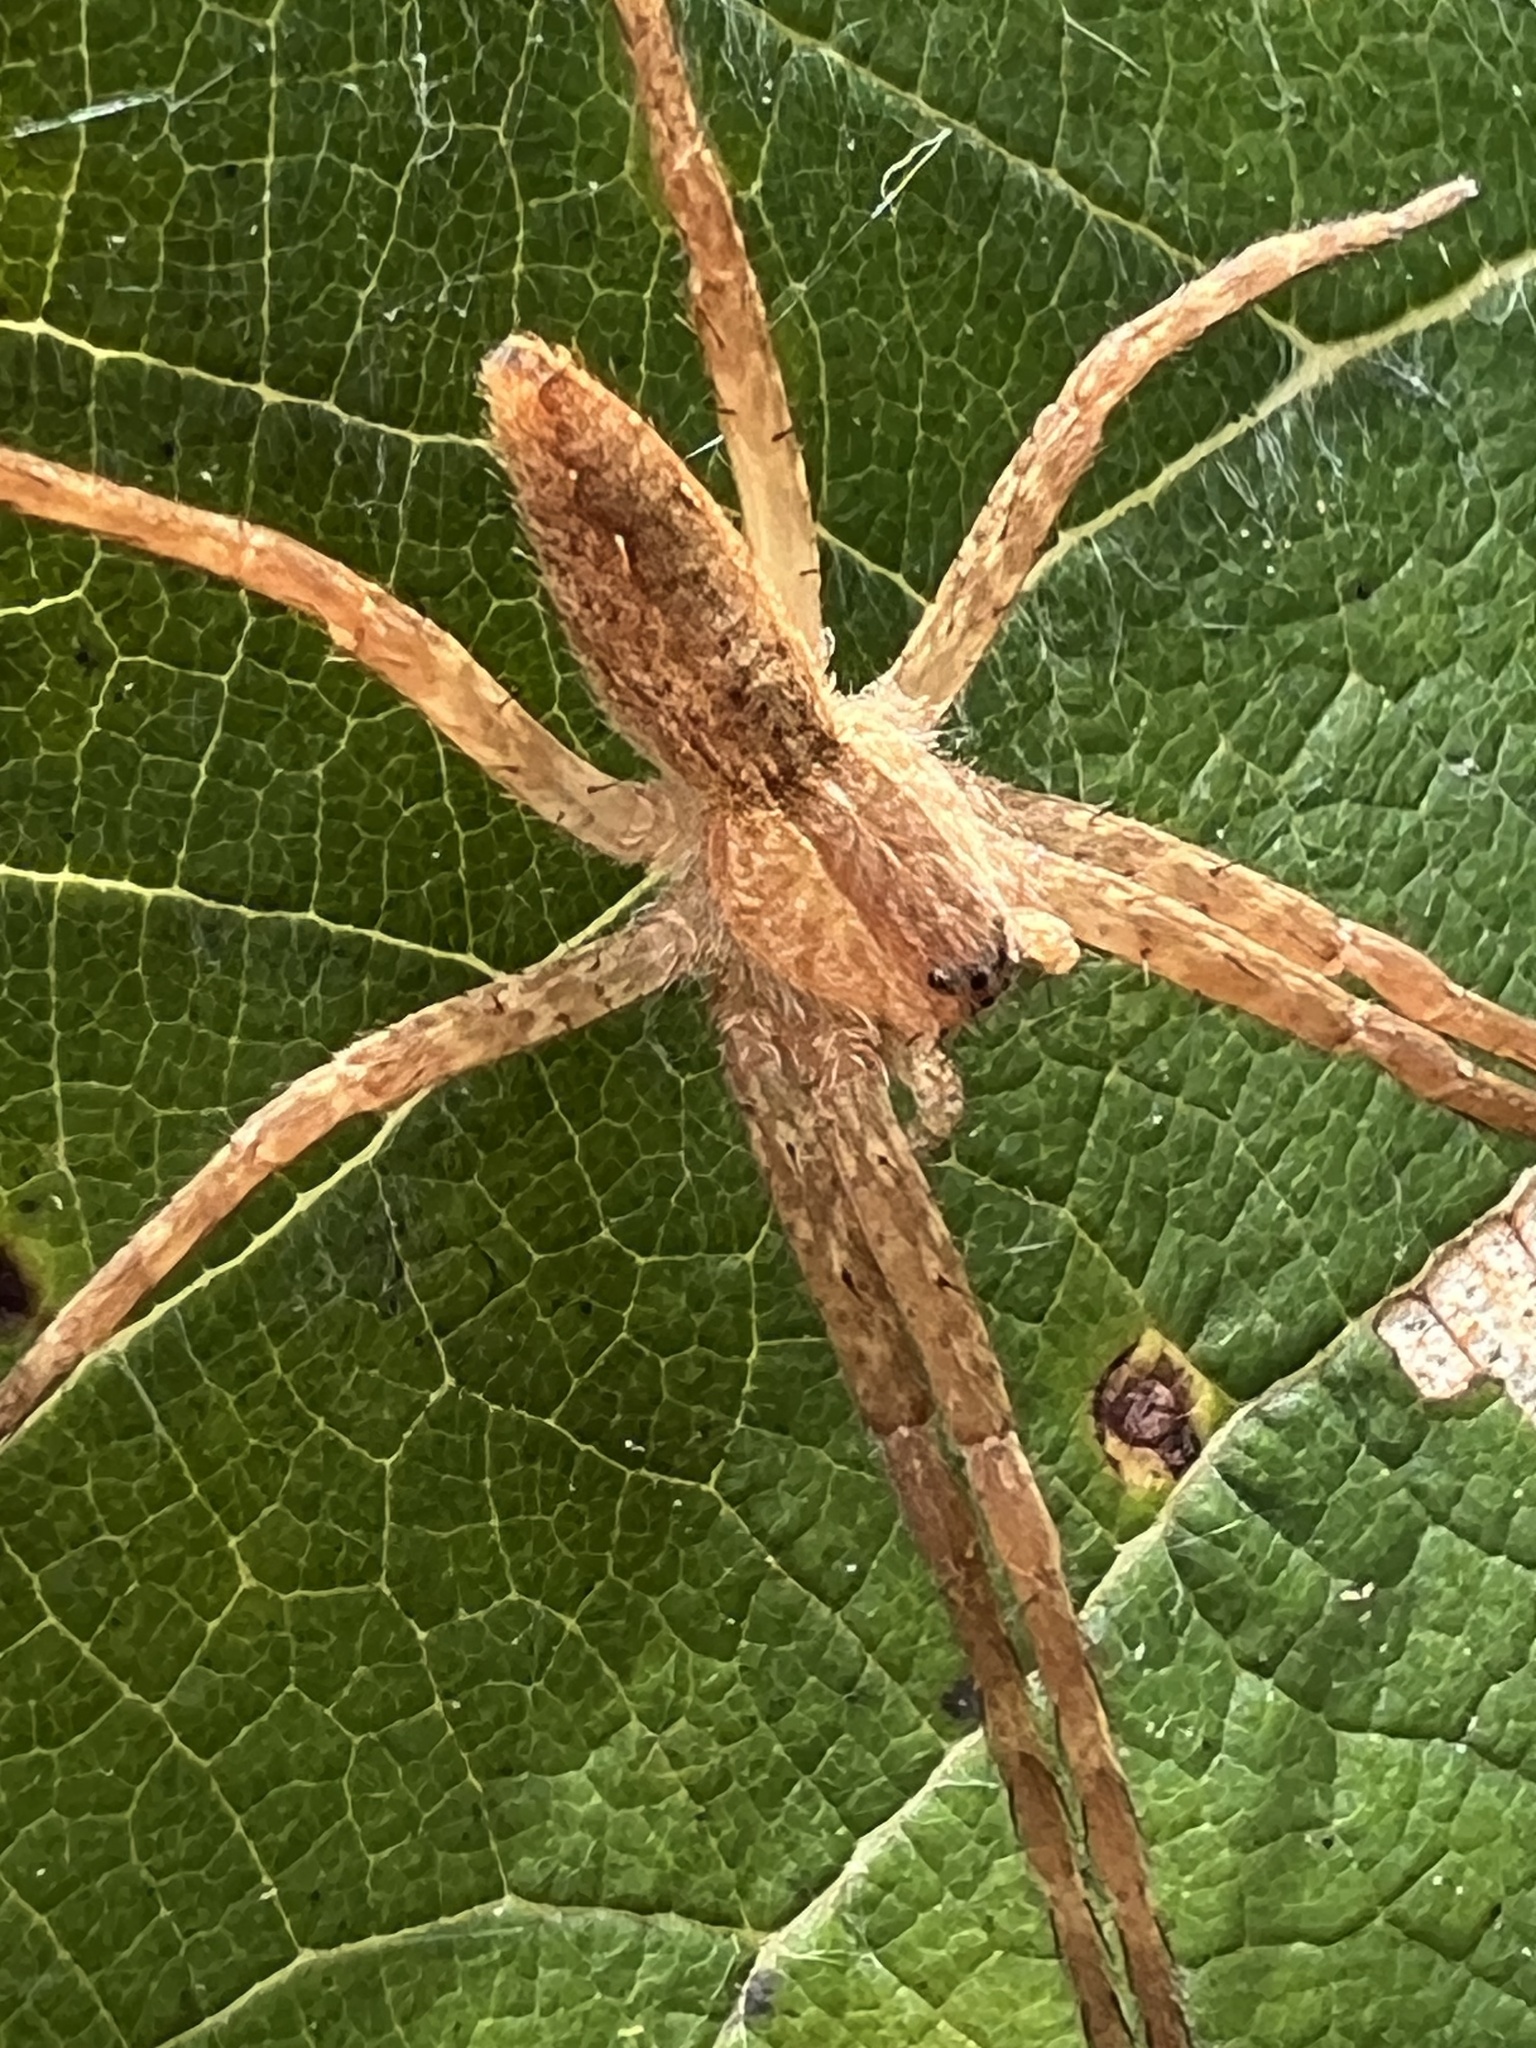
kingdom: Animalia
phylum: Arthropoda
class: Arachnida
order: Araneae
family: Pisauridae
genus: Pisaurina
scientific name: Pisaurina mira
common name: American nursery web spider
